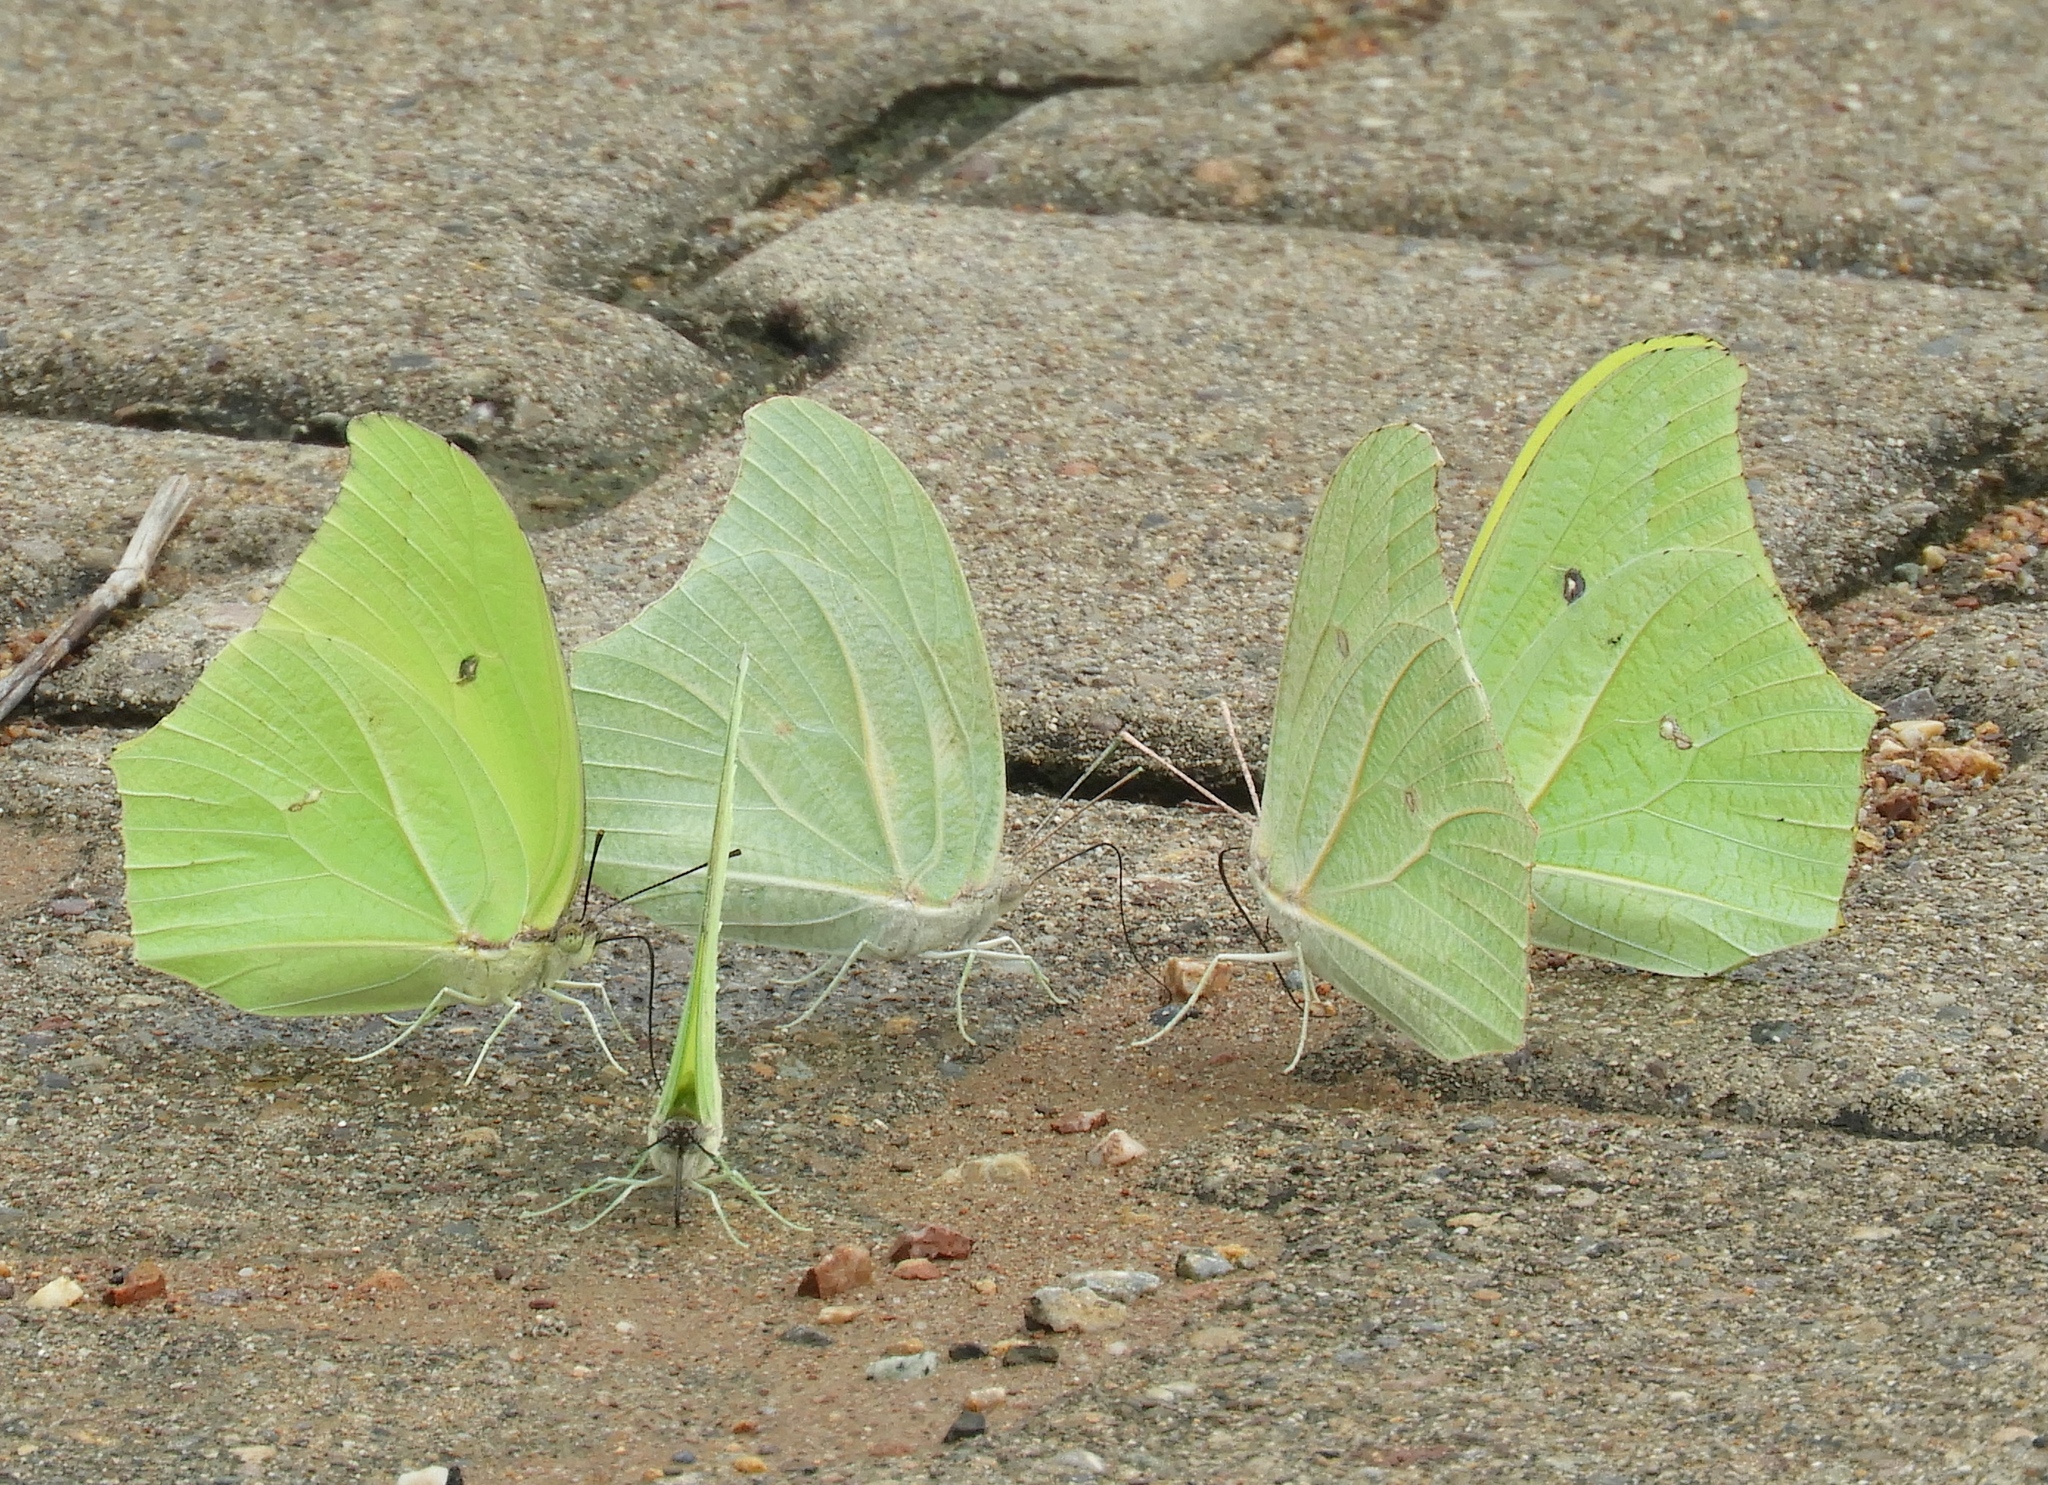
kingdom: Animalia
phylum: Arthropoda
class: Insecta
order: Lepidoptera
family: Pieridae
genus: Anteos
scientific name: Anteos clorinde
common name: White angled sulphur
